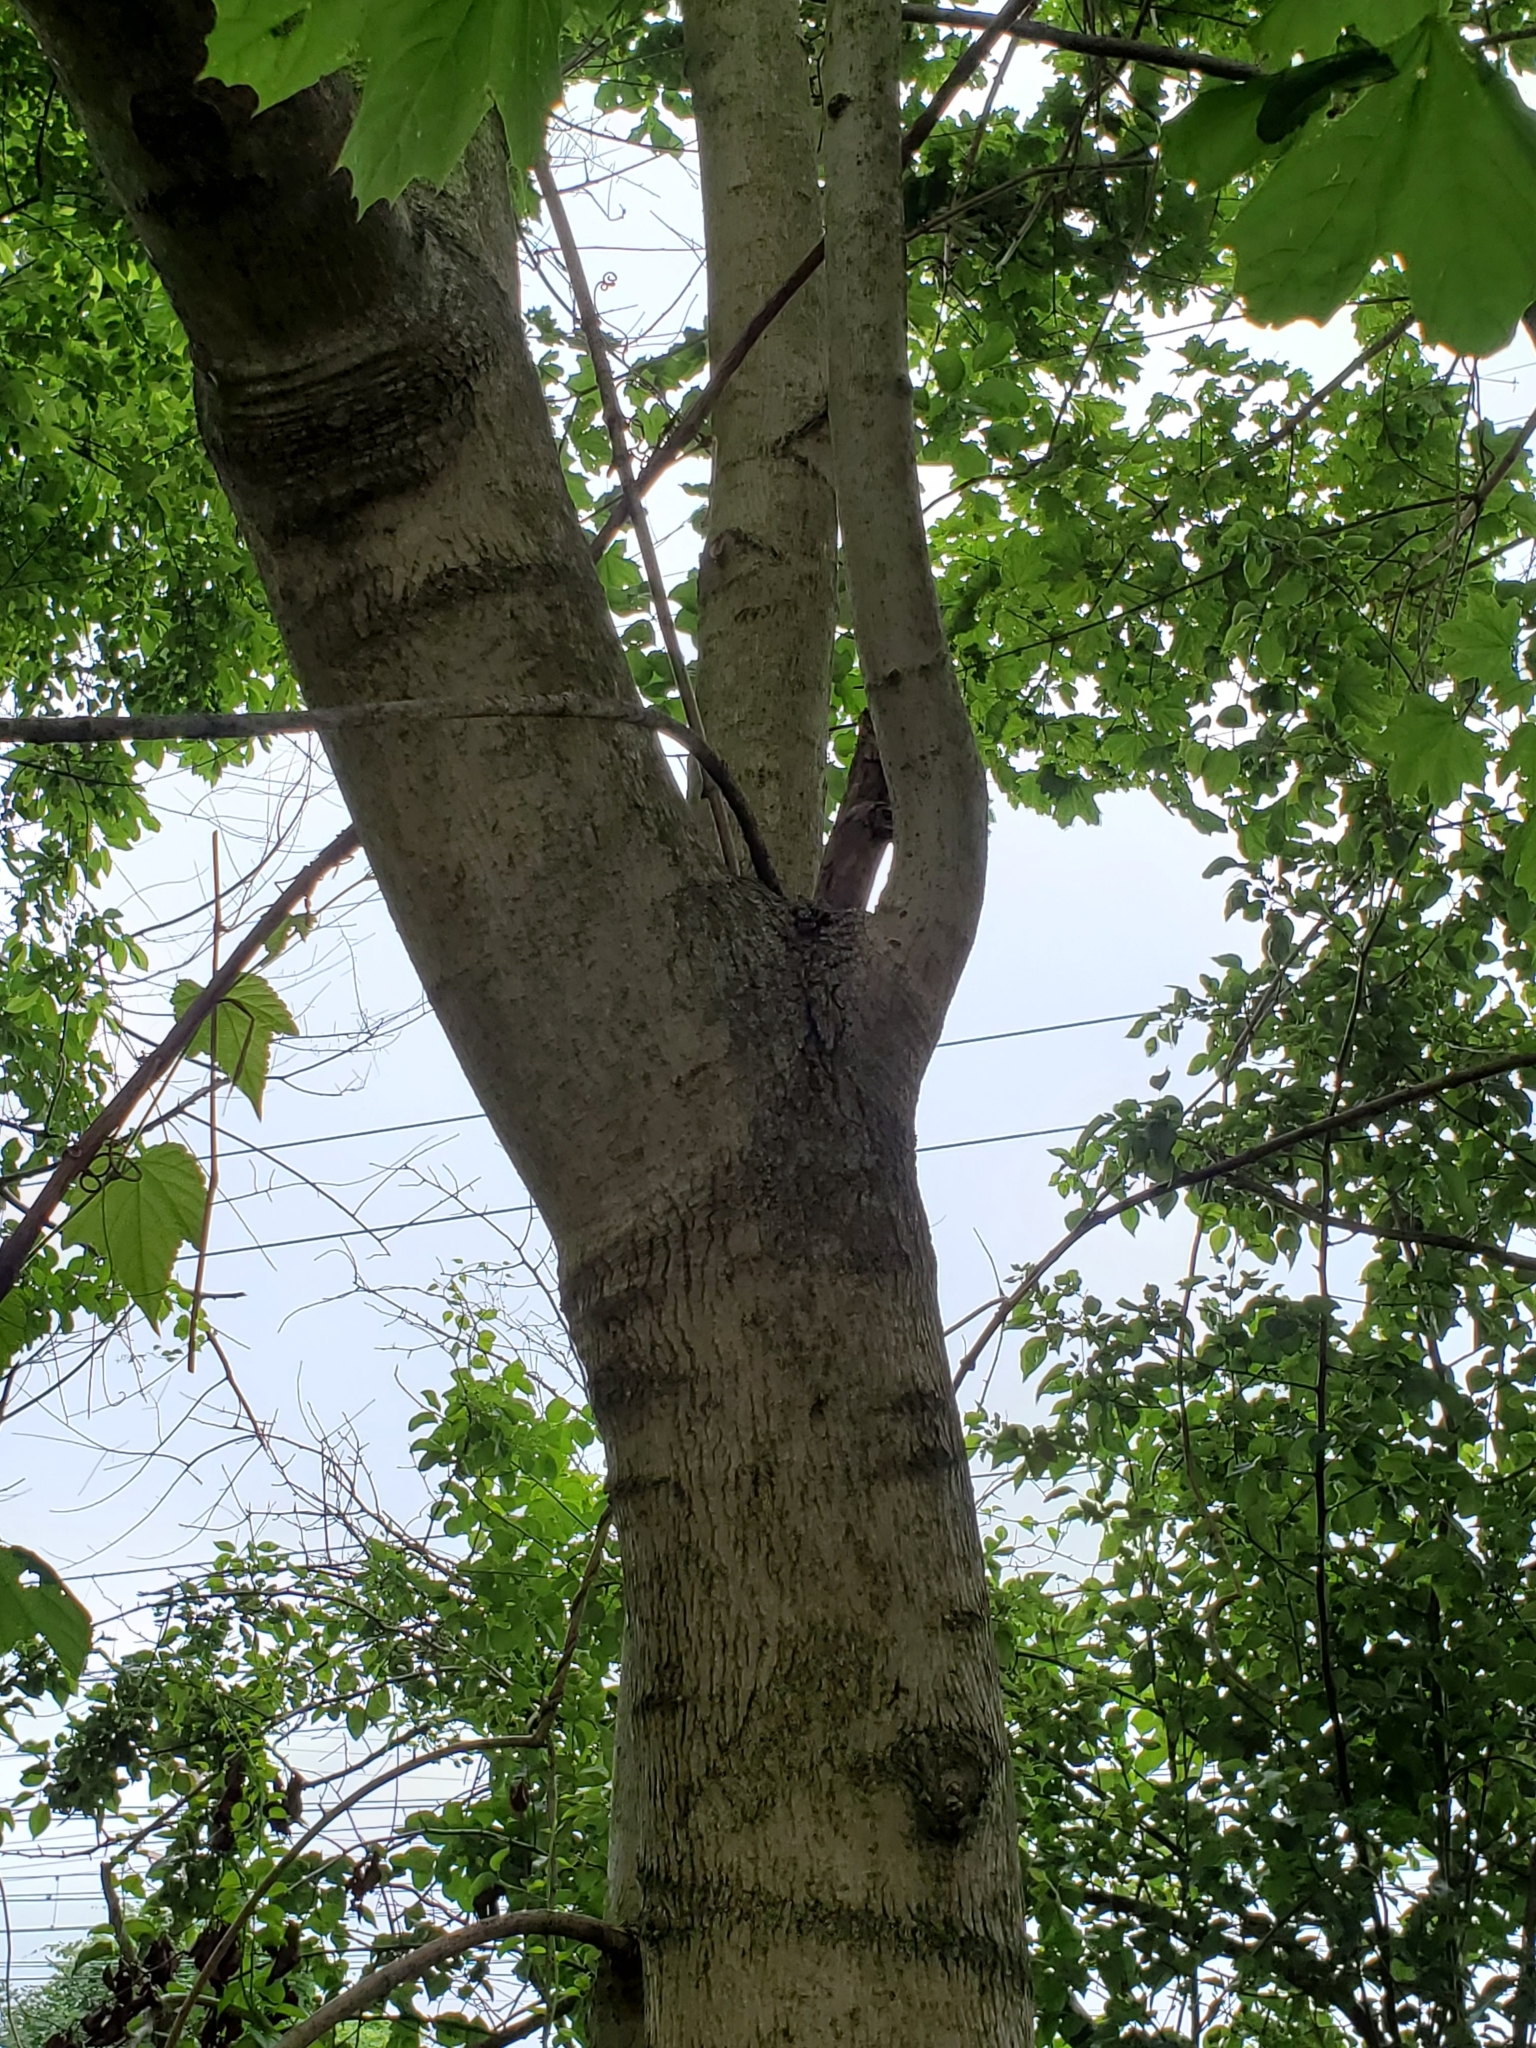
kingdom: Plantae
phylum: Tracheophyta
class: Magnoliopsida
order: Sapindales
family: Sapindaceae
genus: Acer
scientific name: Acer platanoides
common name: Norway maple
